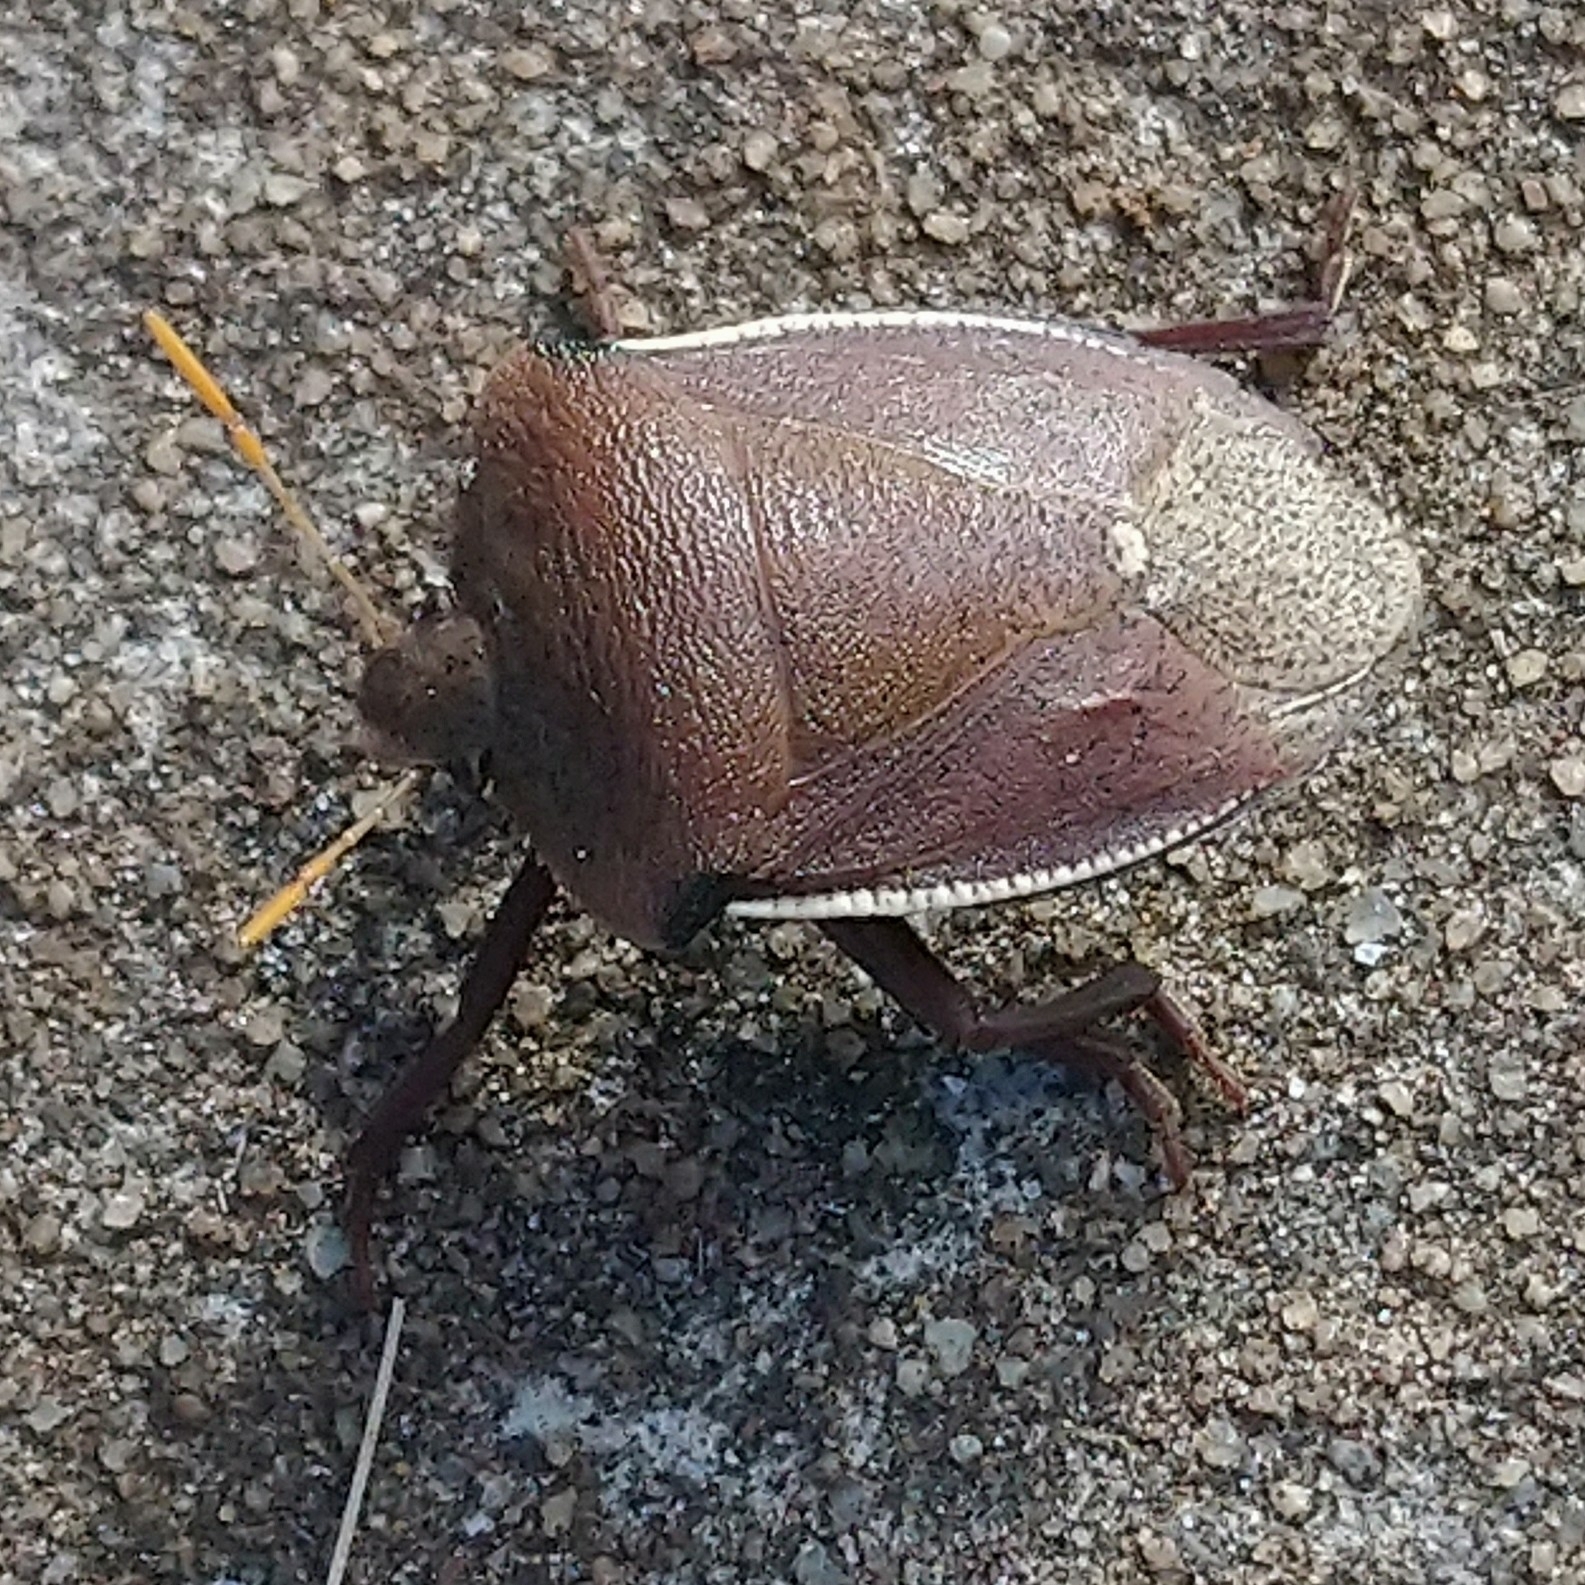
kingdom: Animalia
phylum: Arthropoda
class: Insecta
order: Hemiptera
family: Pentatomidae
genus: Basicryptus
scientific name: Basicryptus costalis
